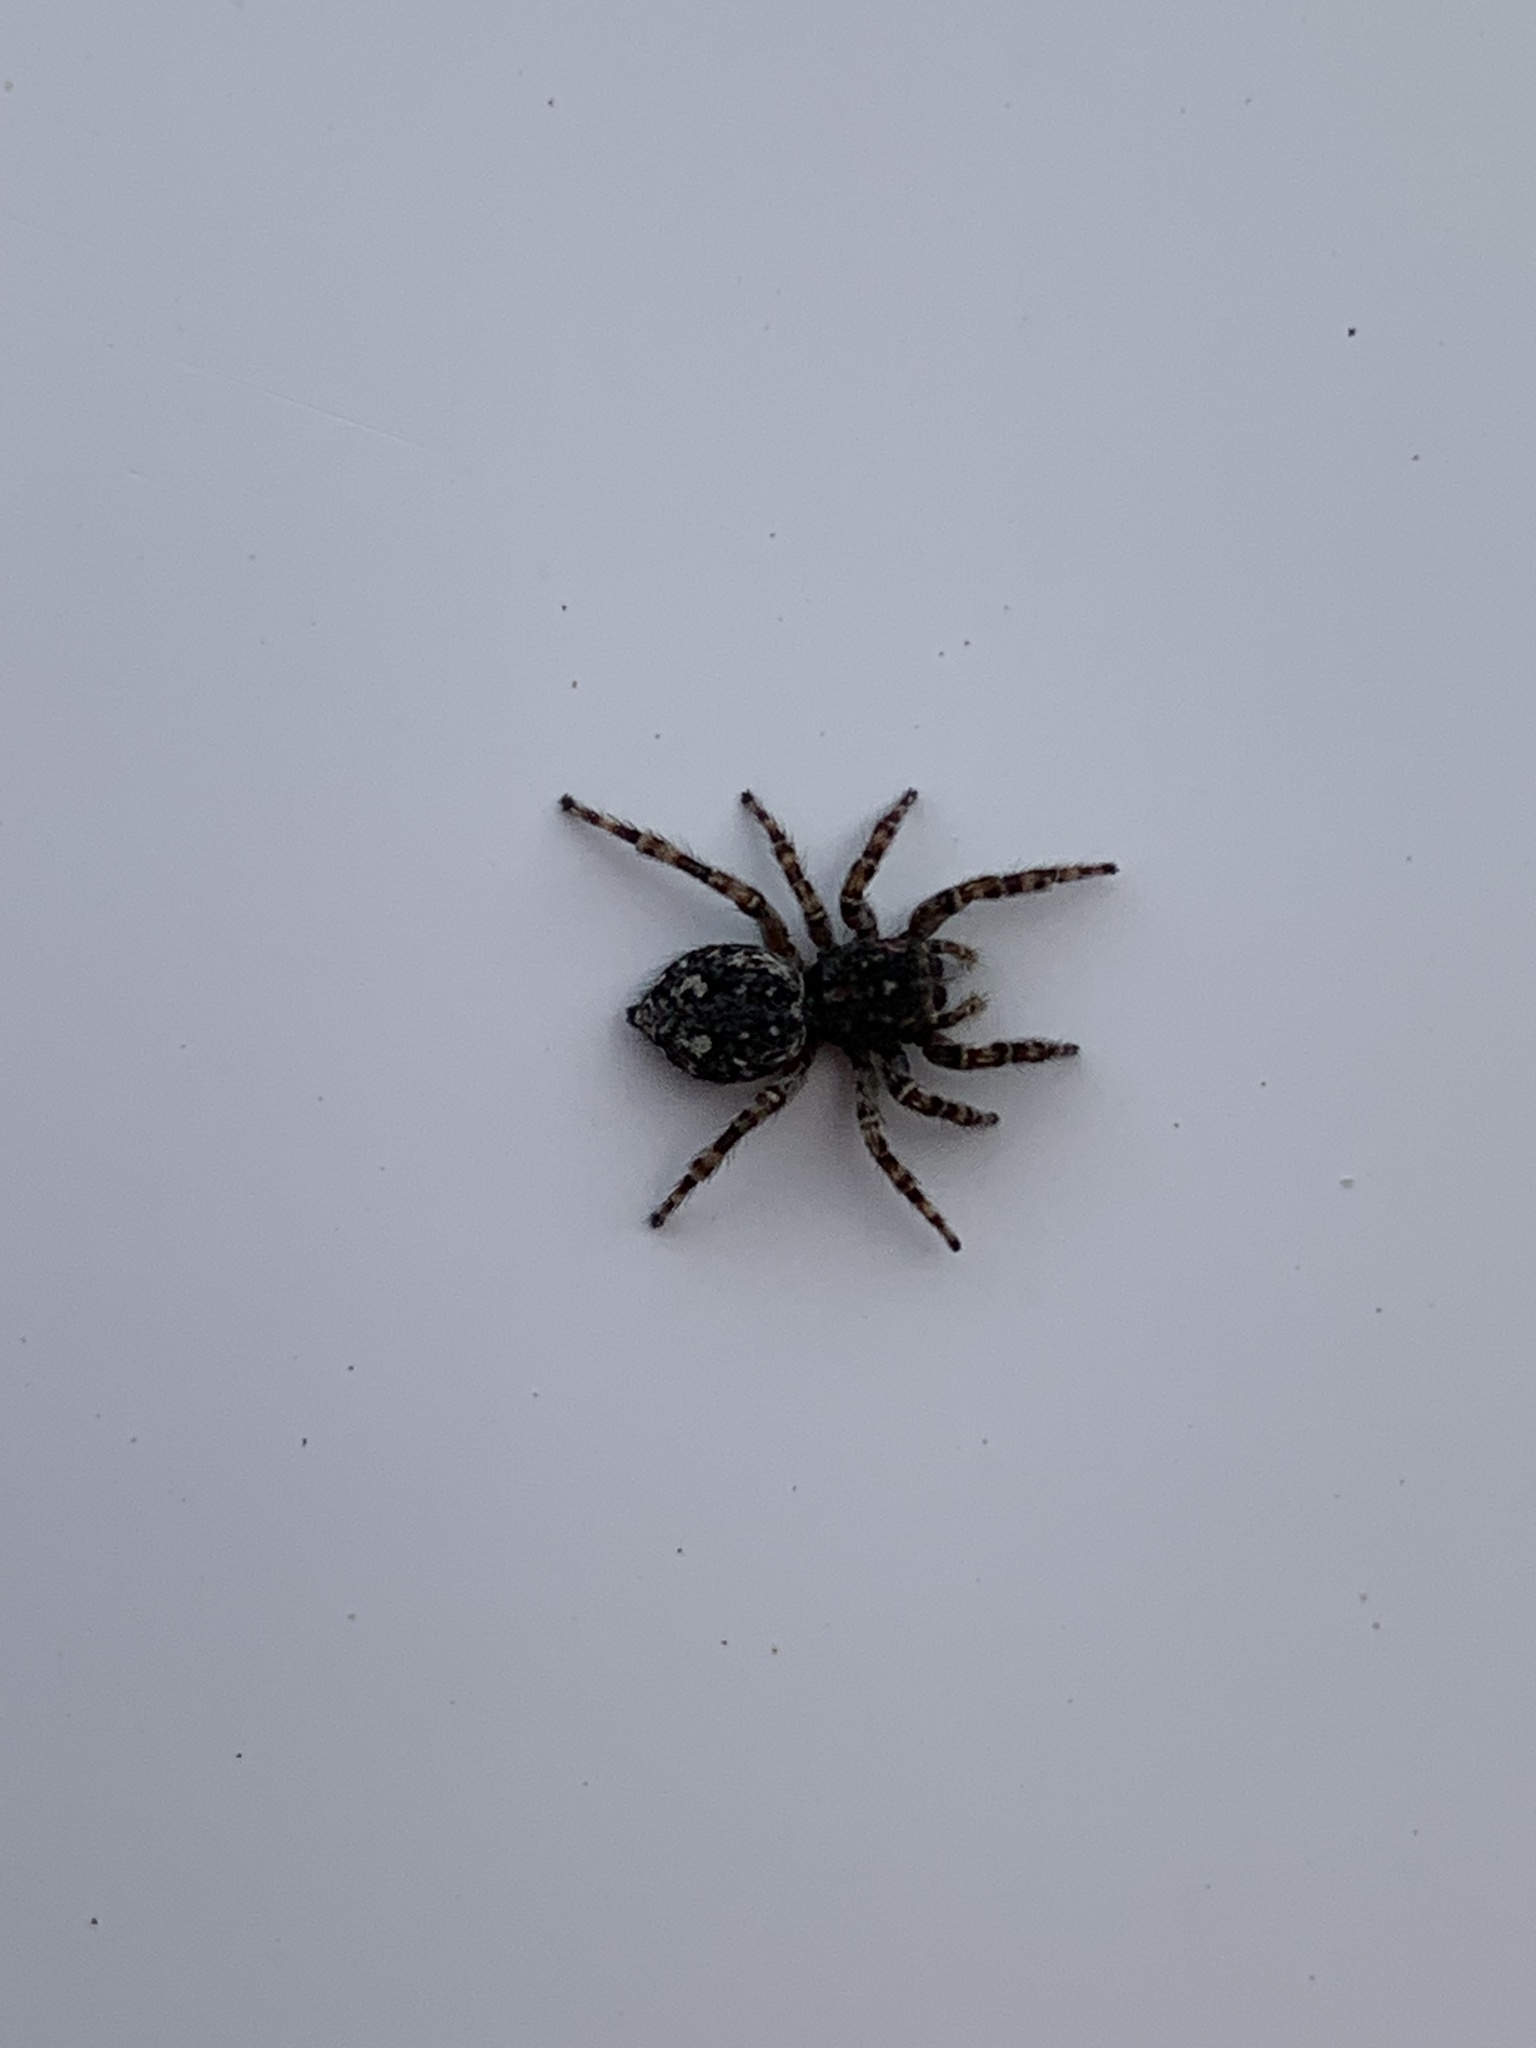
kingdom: Animalia
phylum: Arthropoda
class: Arachnida
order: Araneae
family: Salticidae
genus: Attulus
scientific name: Attulus pubescens
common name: Jumping spider
